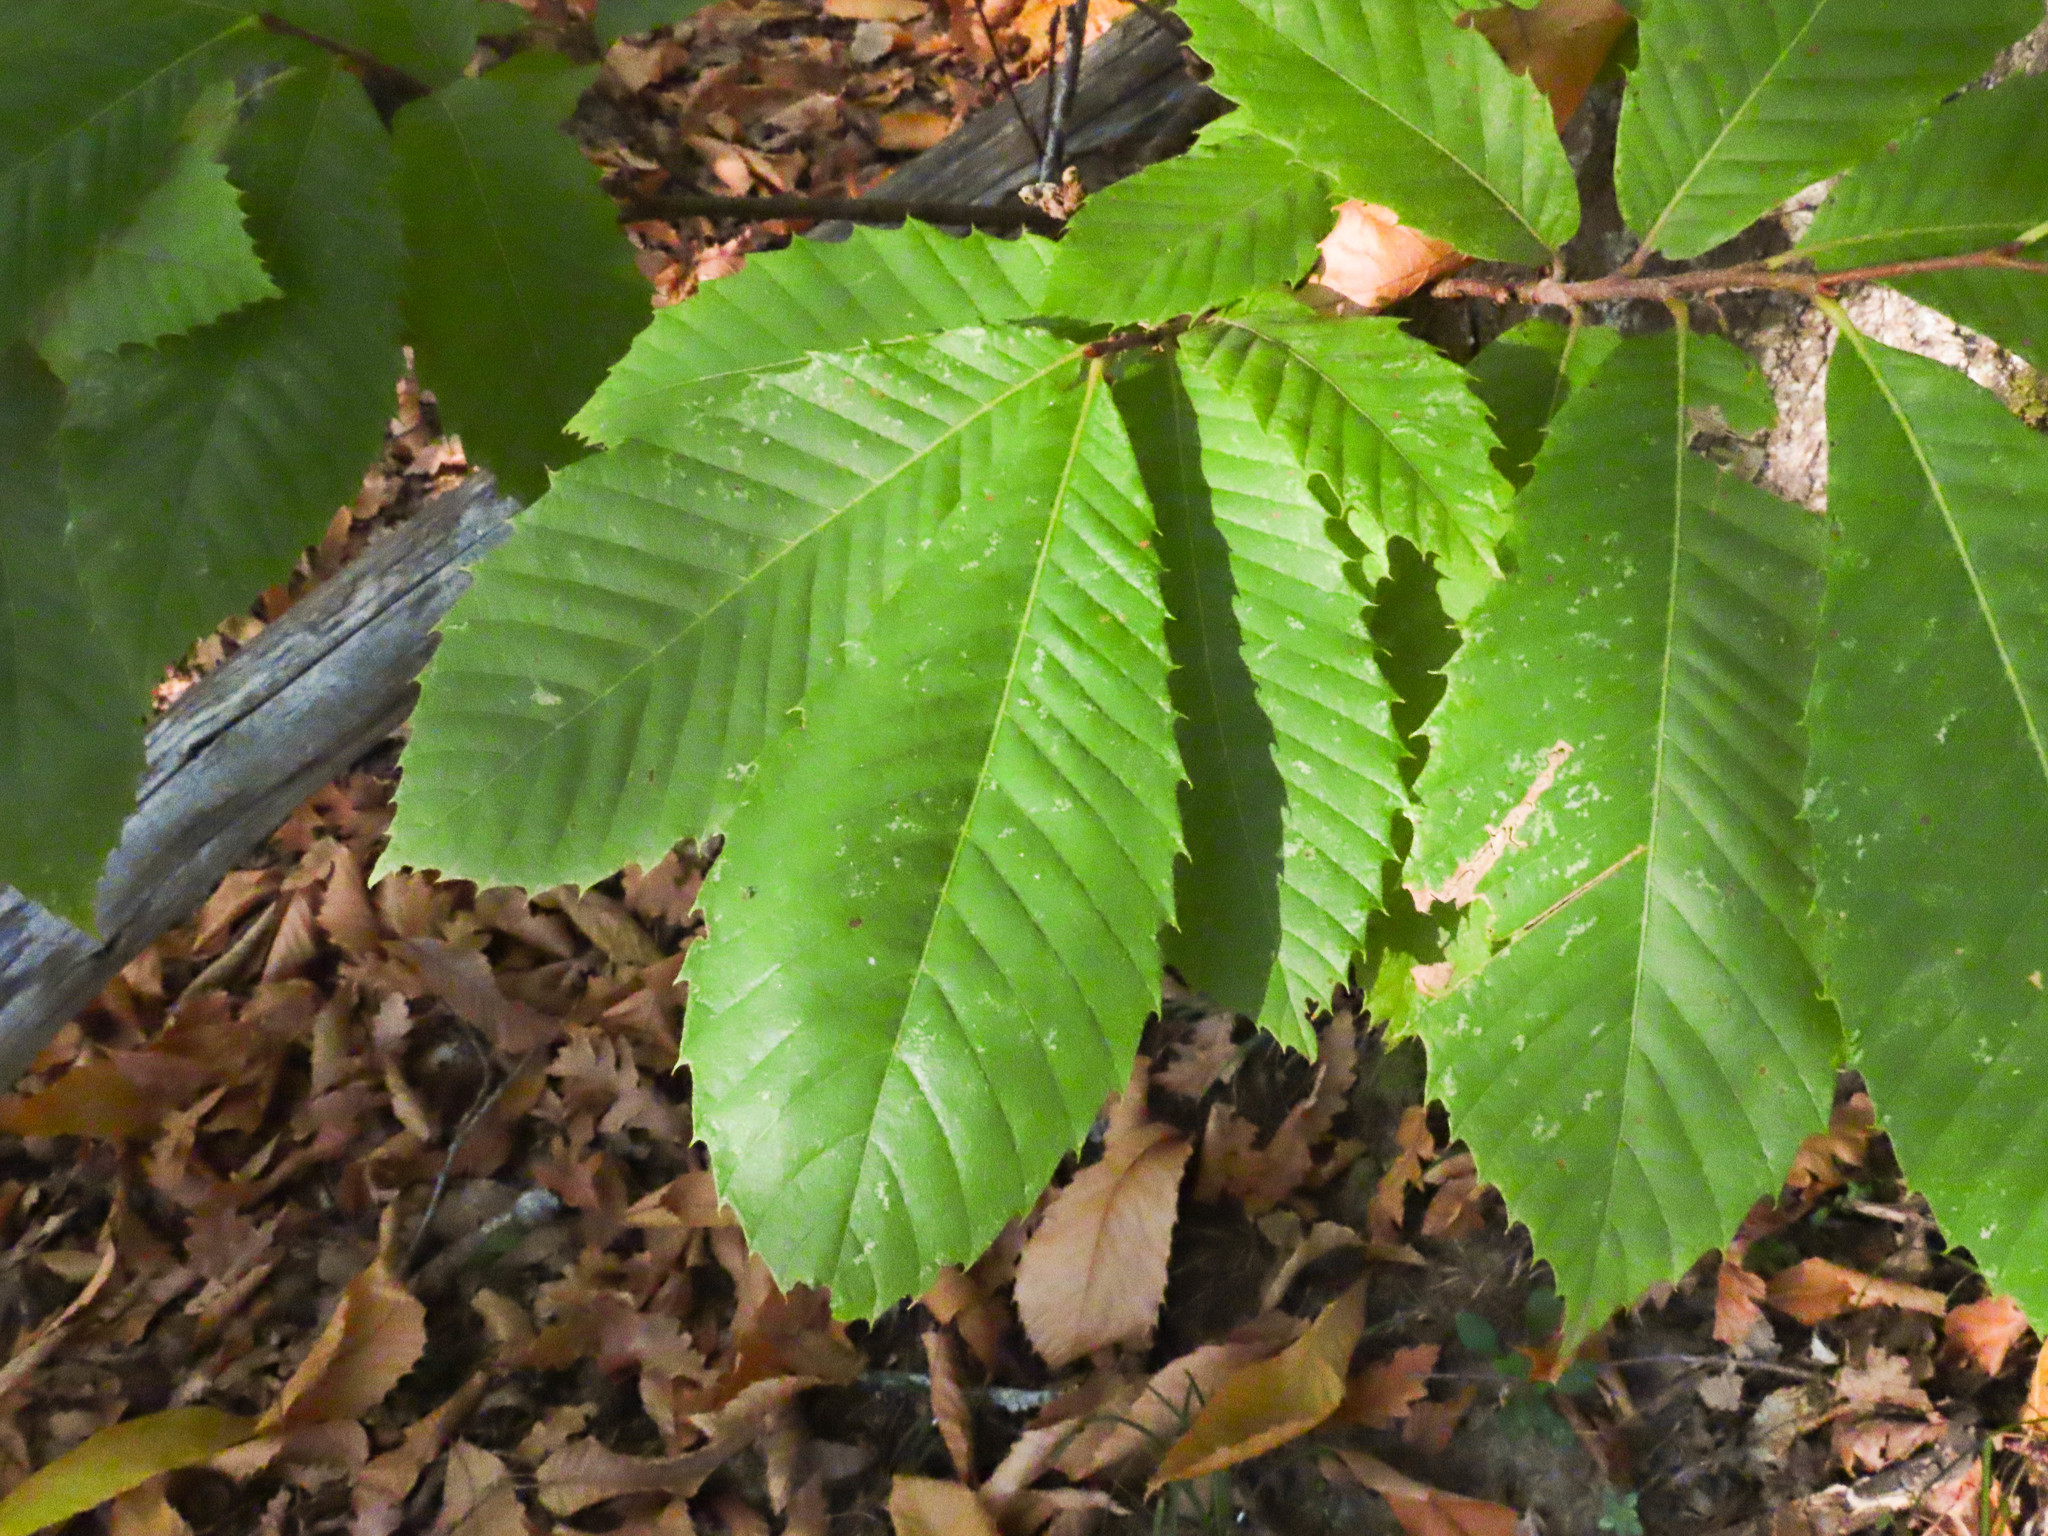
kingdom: Plantae
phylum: Tracheophyta
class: Magnoliopsida
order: Fagales
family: Fagaceae
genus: Castanea
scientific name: Castanea sativa
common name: Sweet chestnut
